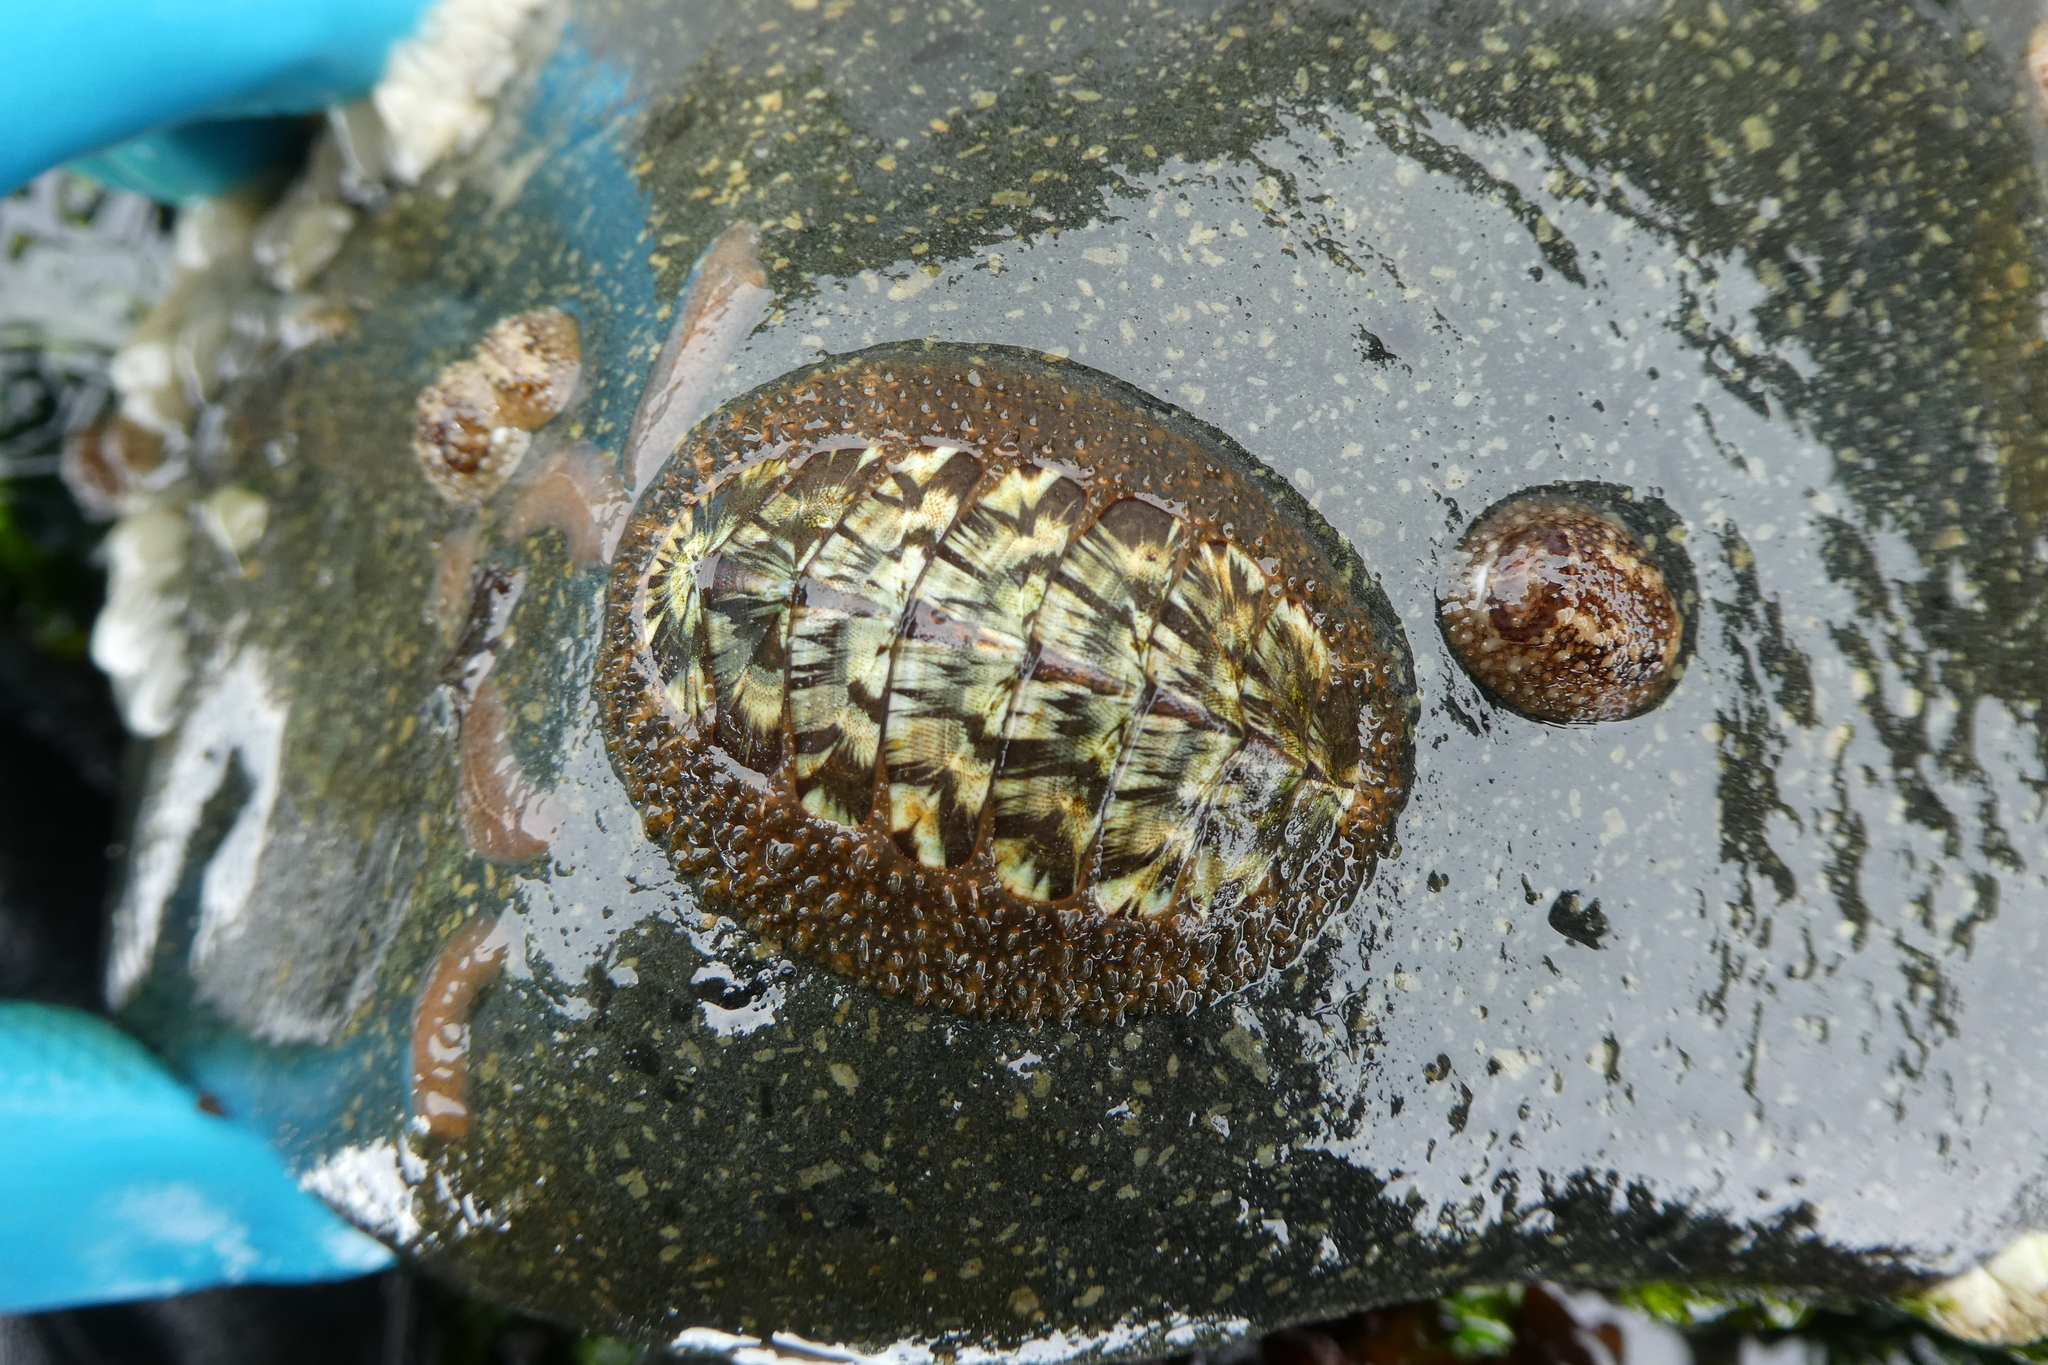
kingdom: Animalia
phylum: Mollusca
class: Polyplacophora
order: Chitonida
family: Mopaliidae
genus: Mopalia
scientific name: Mopalia lignosa
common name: Woody chiton
